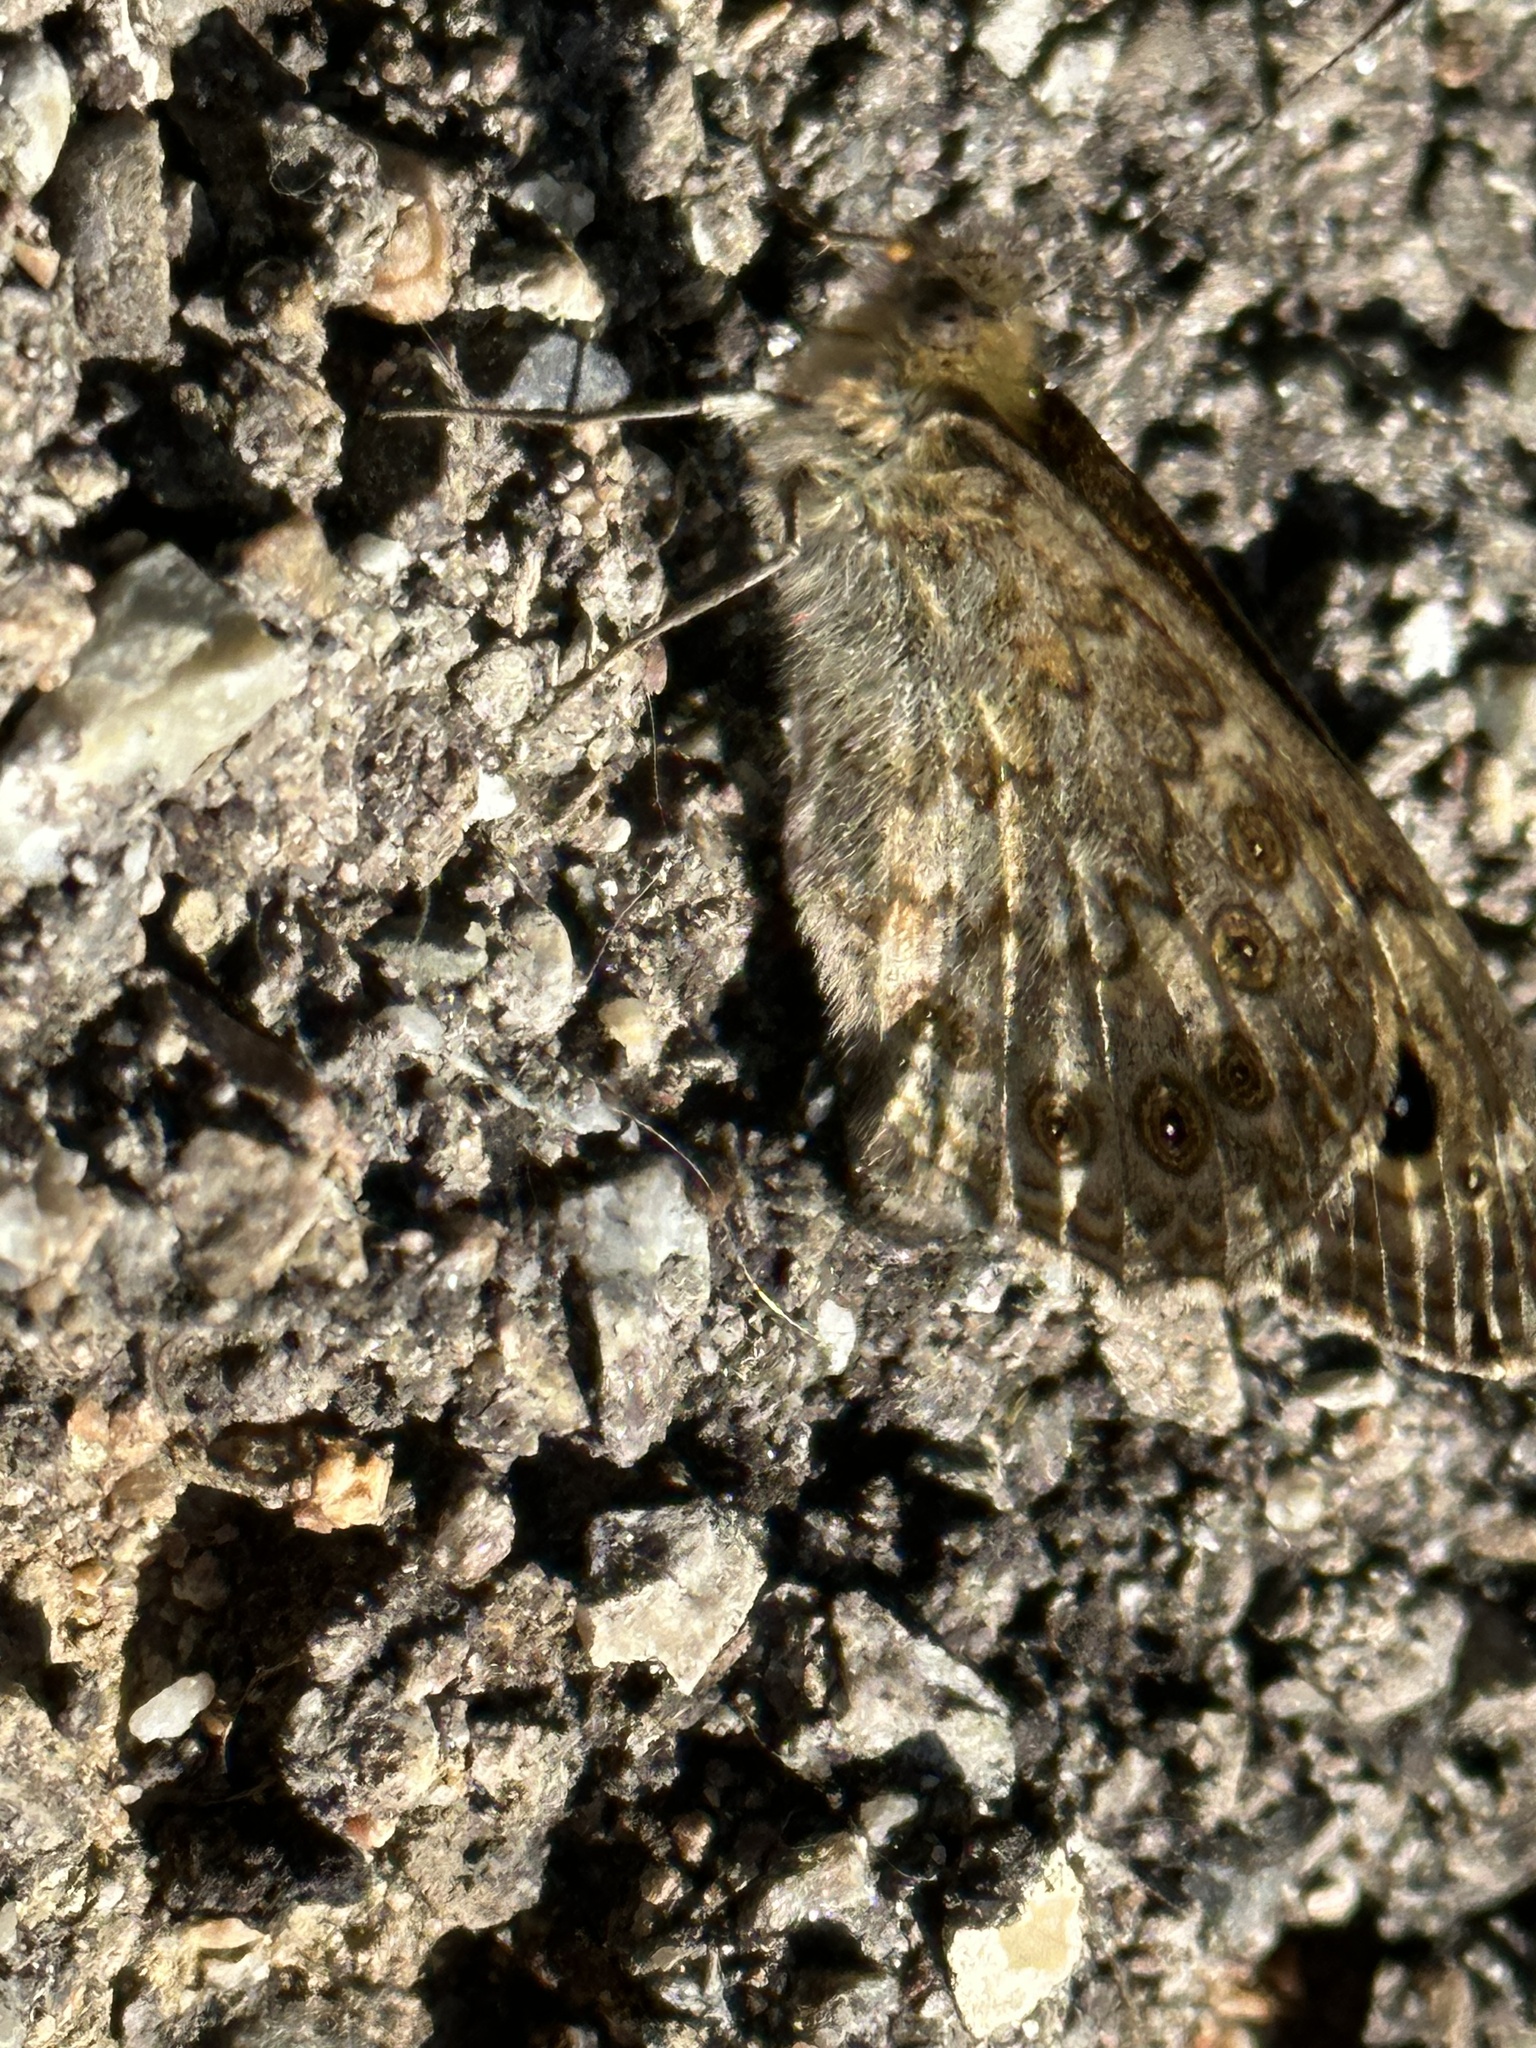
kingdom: Animalia
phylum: Arthropoda
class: Insecta
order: Lepidoptera
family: Nymphalidae
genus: Pararge
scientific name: Pararge Lasiommata megera
